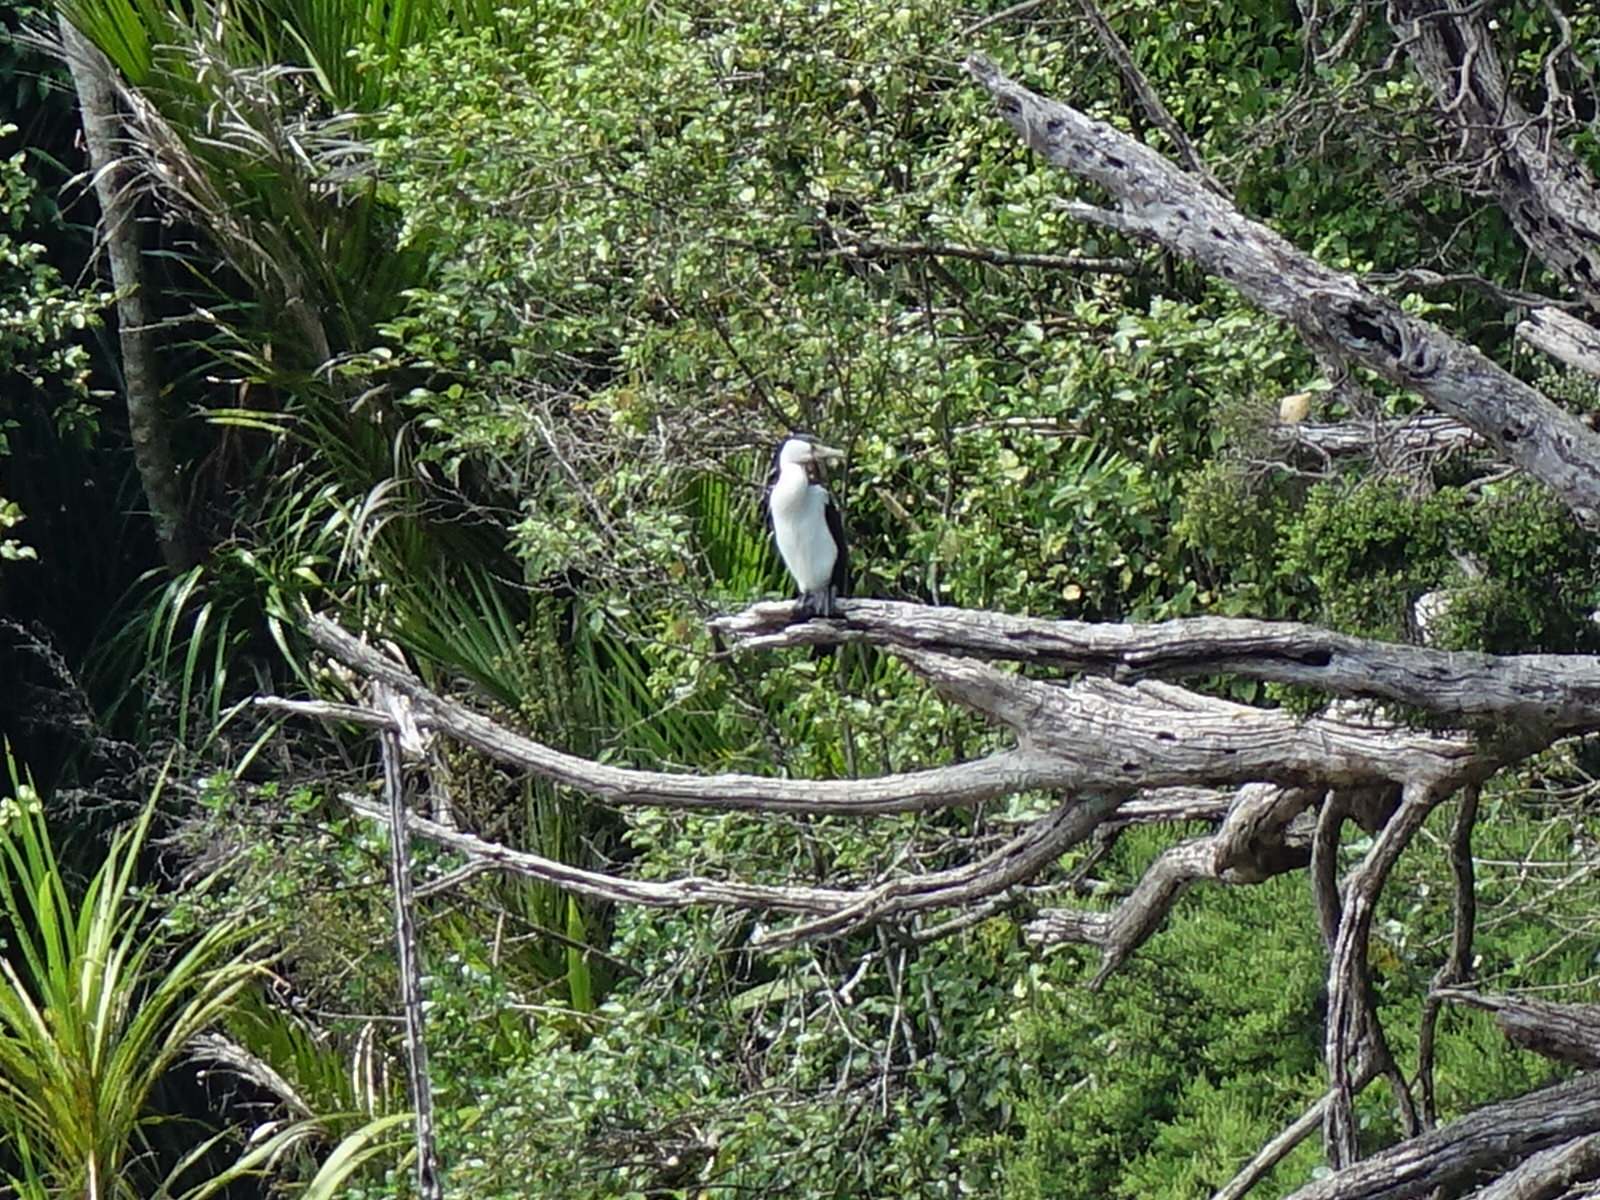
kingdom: Animalia
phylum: Chordata
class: Aves
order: Suliformes
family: Phalacrocoracidae
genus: Phalacrocorax
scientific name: Phalacrocorax varius
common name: Pied cormorant
